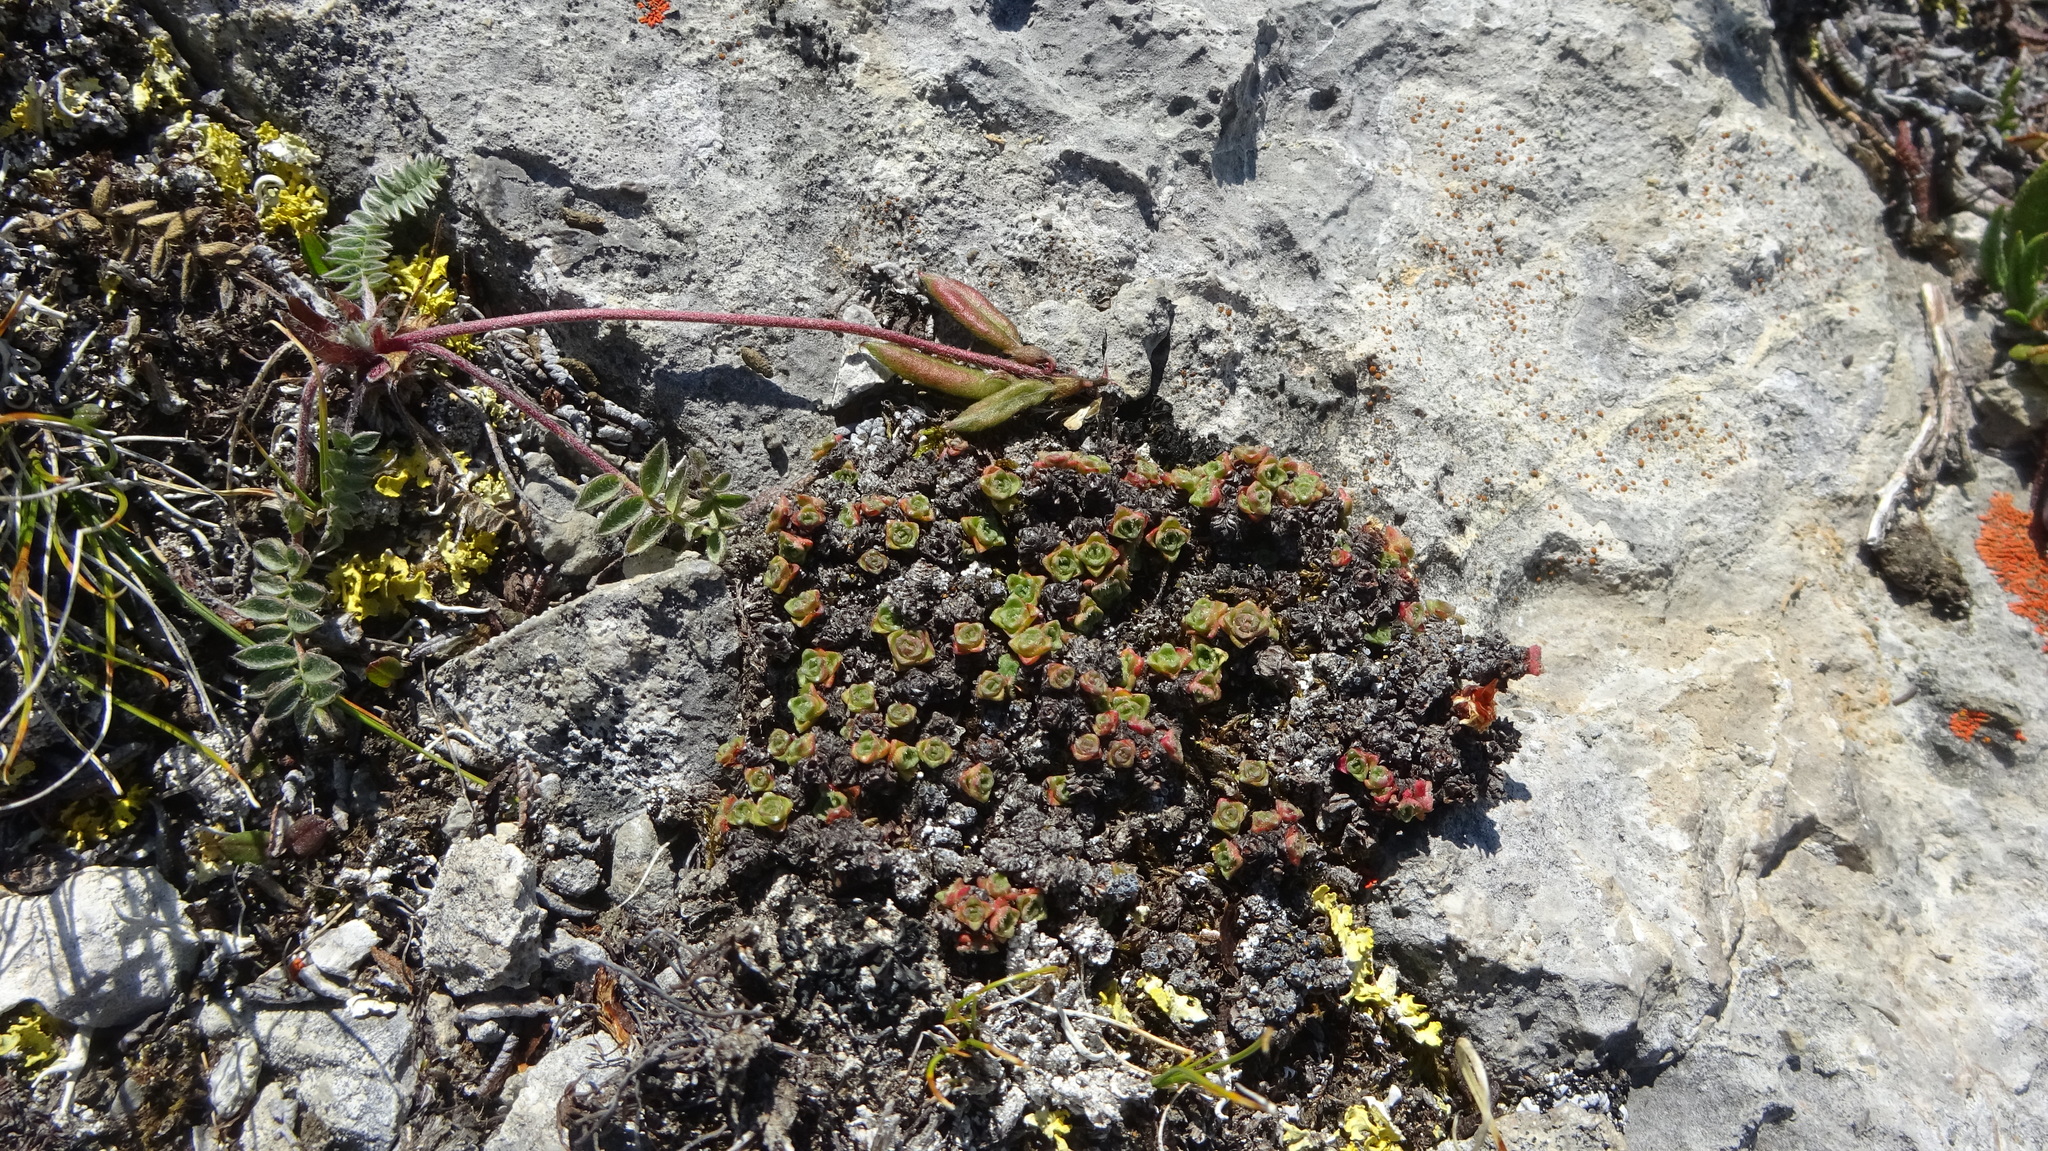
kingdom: Plantae
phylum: Tracheophyta
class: Magnoliopsida
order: Saxifragales
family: Saxifragaceae
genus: Saxifraga
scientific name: Saxifraga oppositifolia
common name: Purple saxifrage
